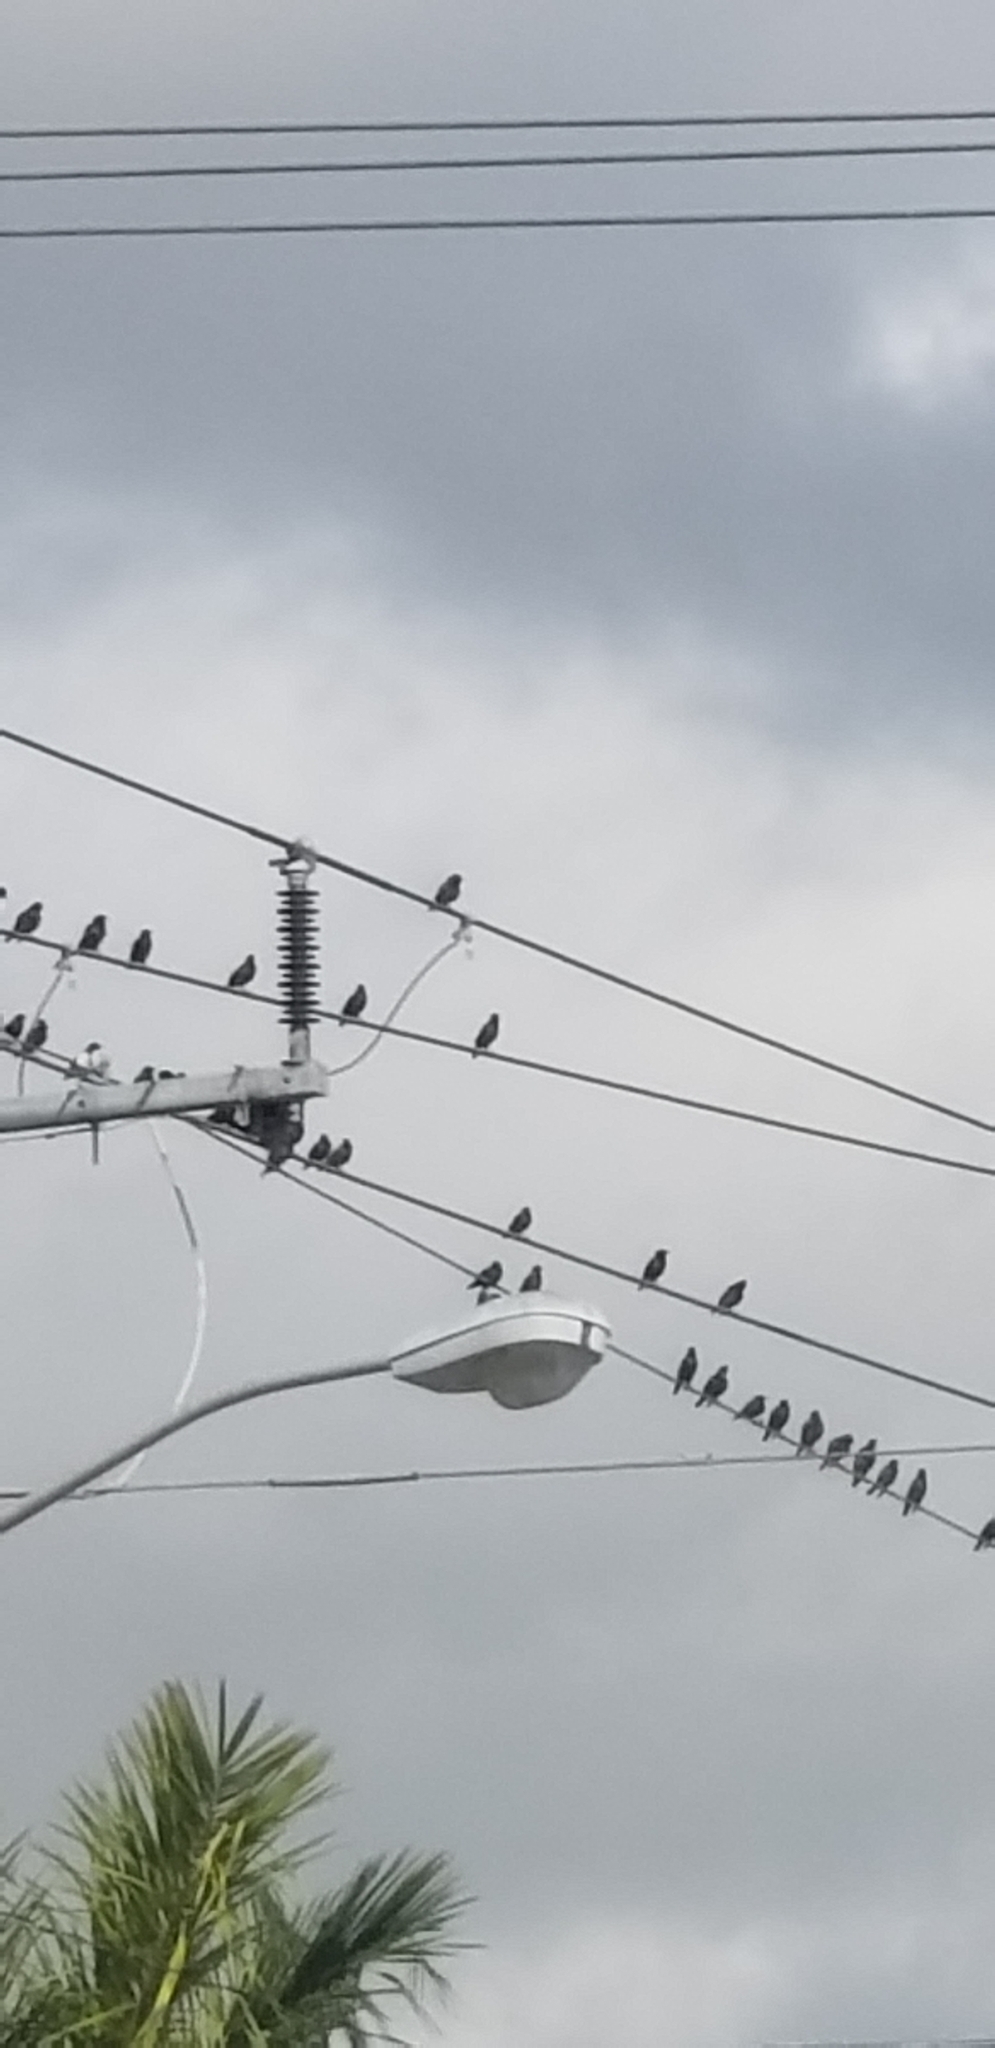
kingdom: Animalia
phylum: Chordata
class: Aves
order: Passeriformes
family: Sturnidae
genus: Sturnus
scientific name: Sturnus vulgaris
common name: Common starling
